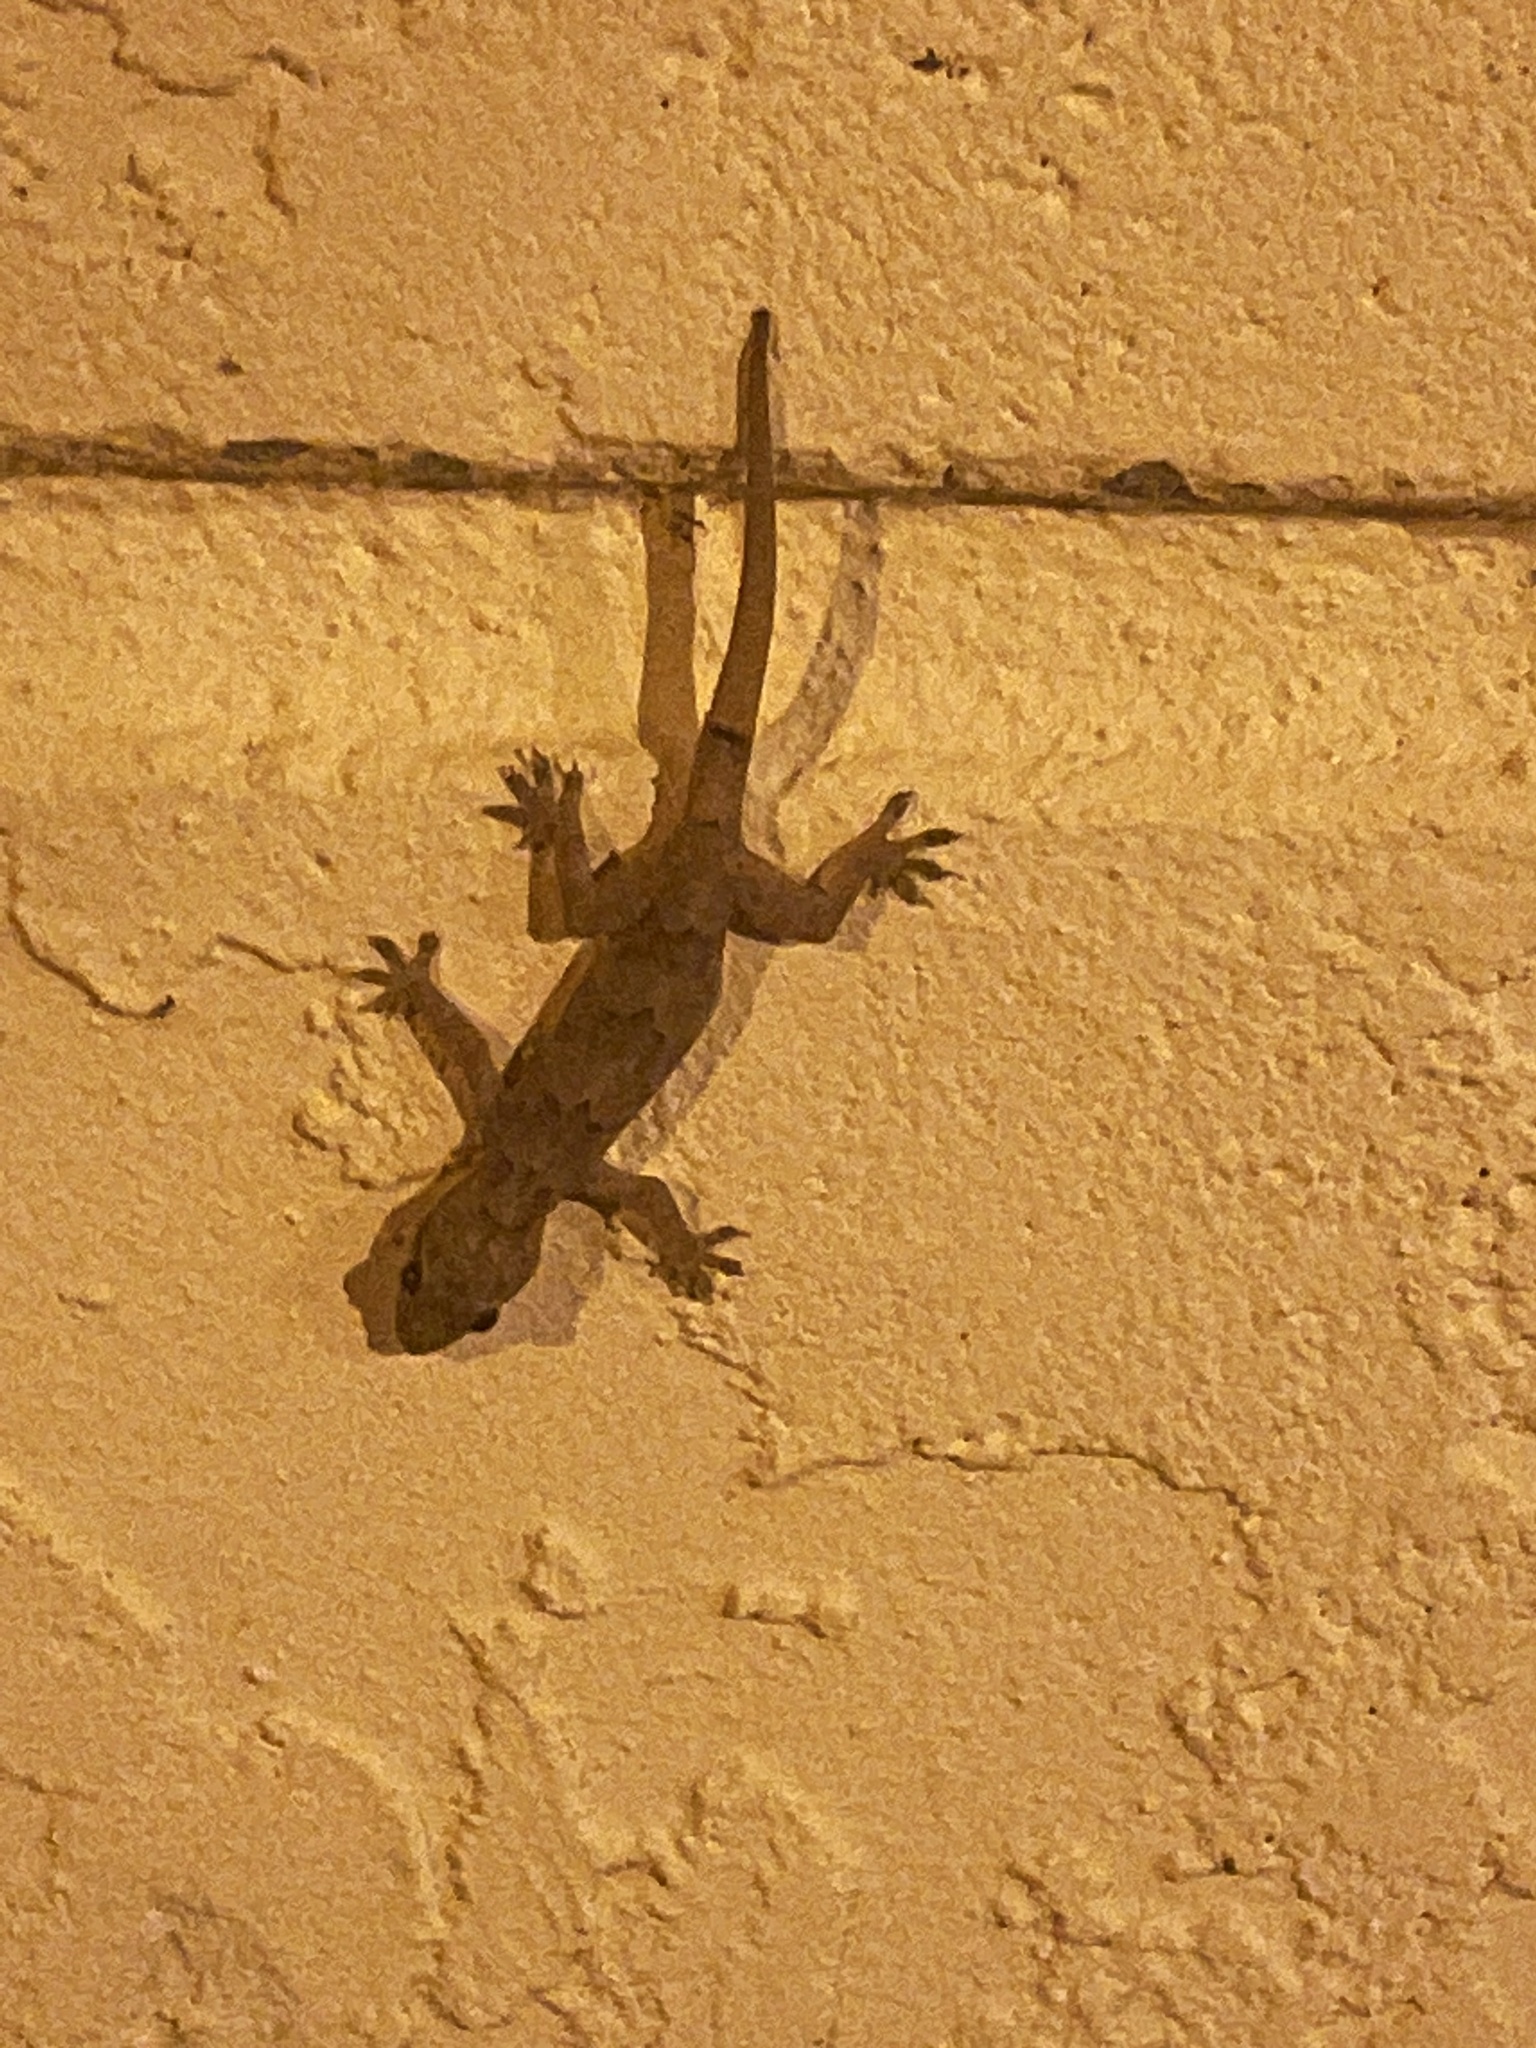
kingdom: Animalia
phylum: Chordata
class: Squamata
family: Gekkonidae
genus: Hemidactylus
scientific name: Hemidactylus mabouia
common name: House gecko
